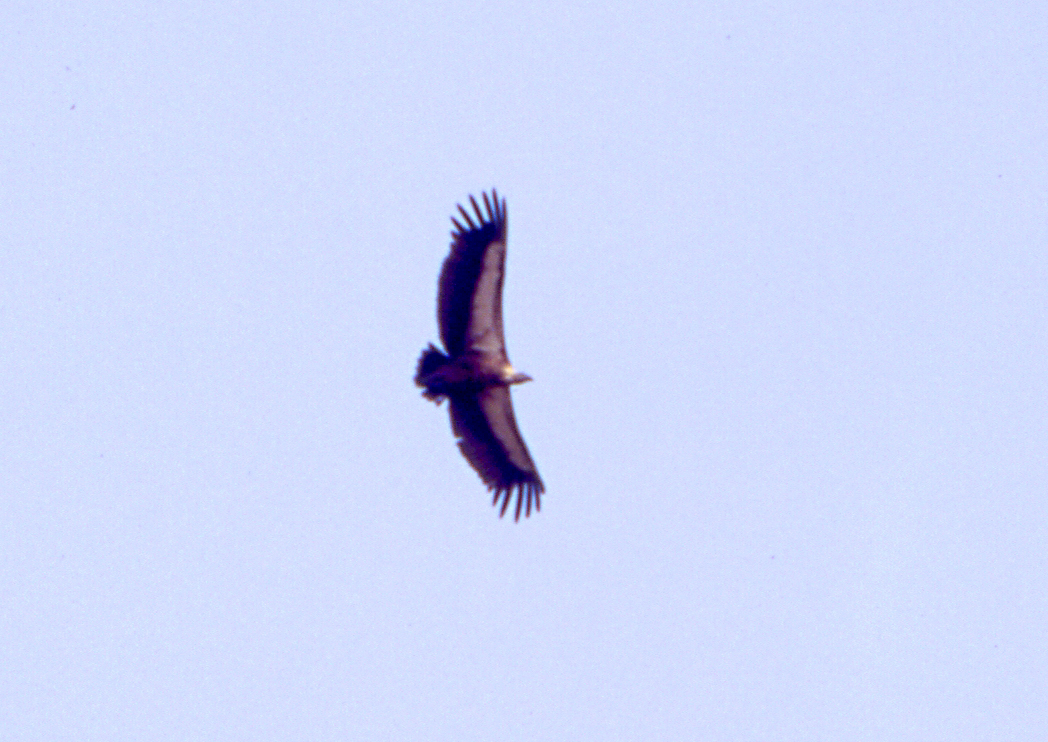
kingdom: Animalia
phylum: Chordata
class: Aves
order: Accipitriformes
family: Accipitridae
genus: Gyps
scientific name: Gyps bengalensis
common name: White-rumped vulture
